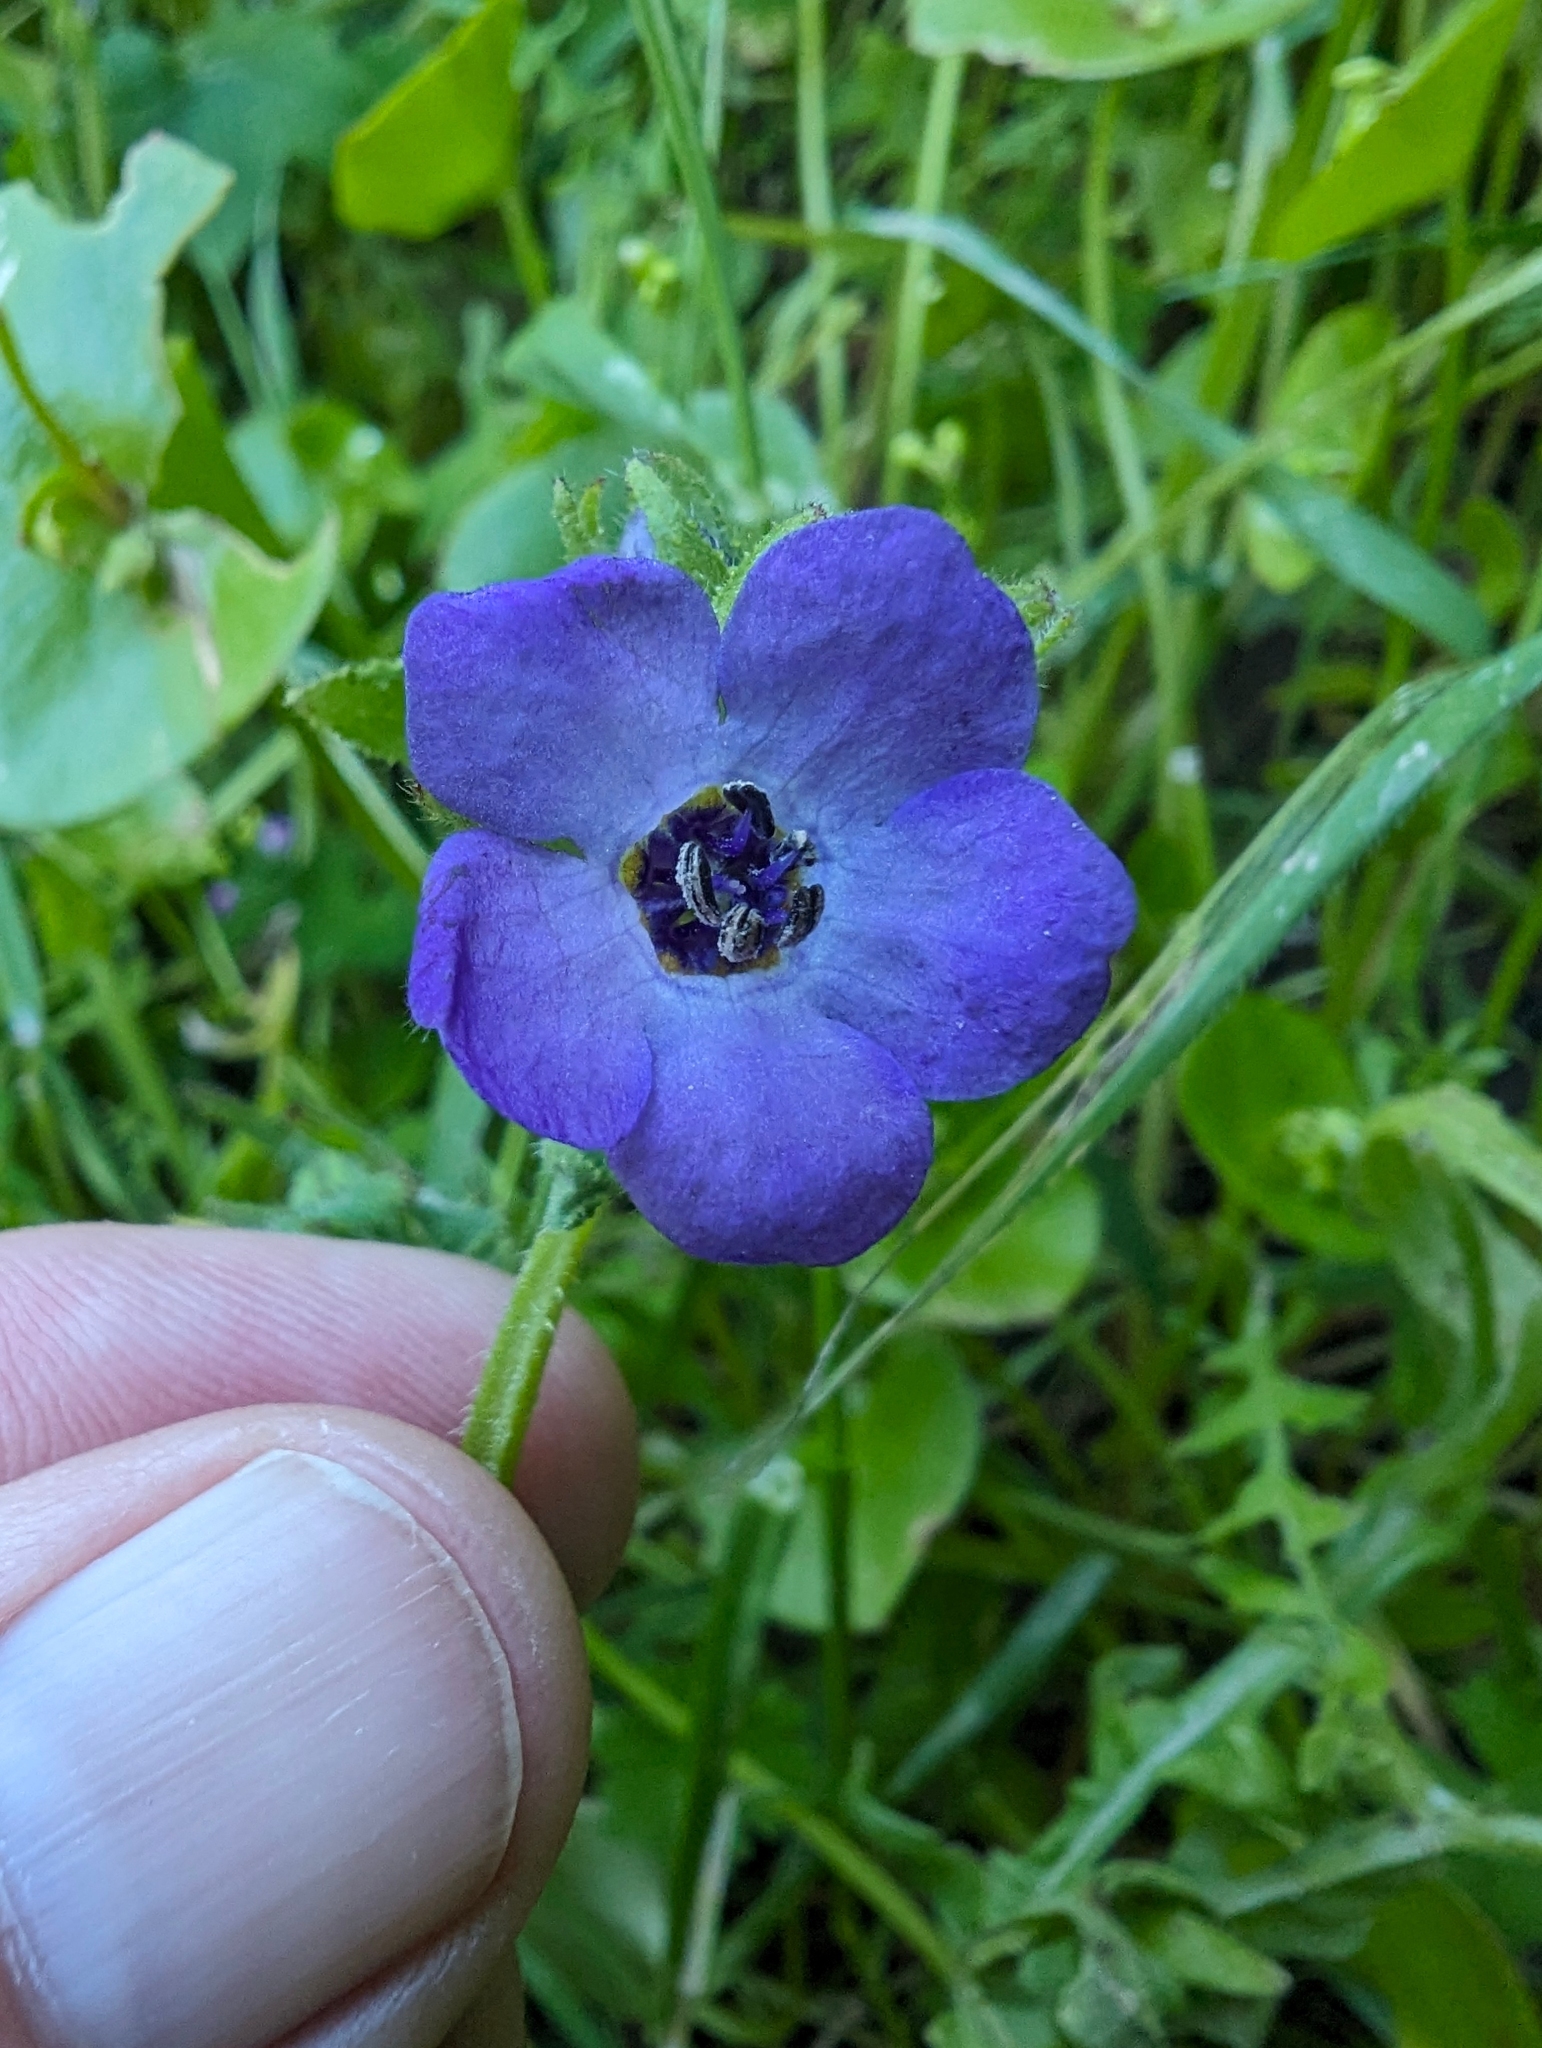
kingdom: Plantae
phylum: Tracheophyta
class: Magnoliopsida
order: Boraginales
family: Hydrophyllaceae
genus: Pholistoma
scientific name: Pholistoma auritum
